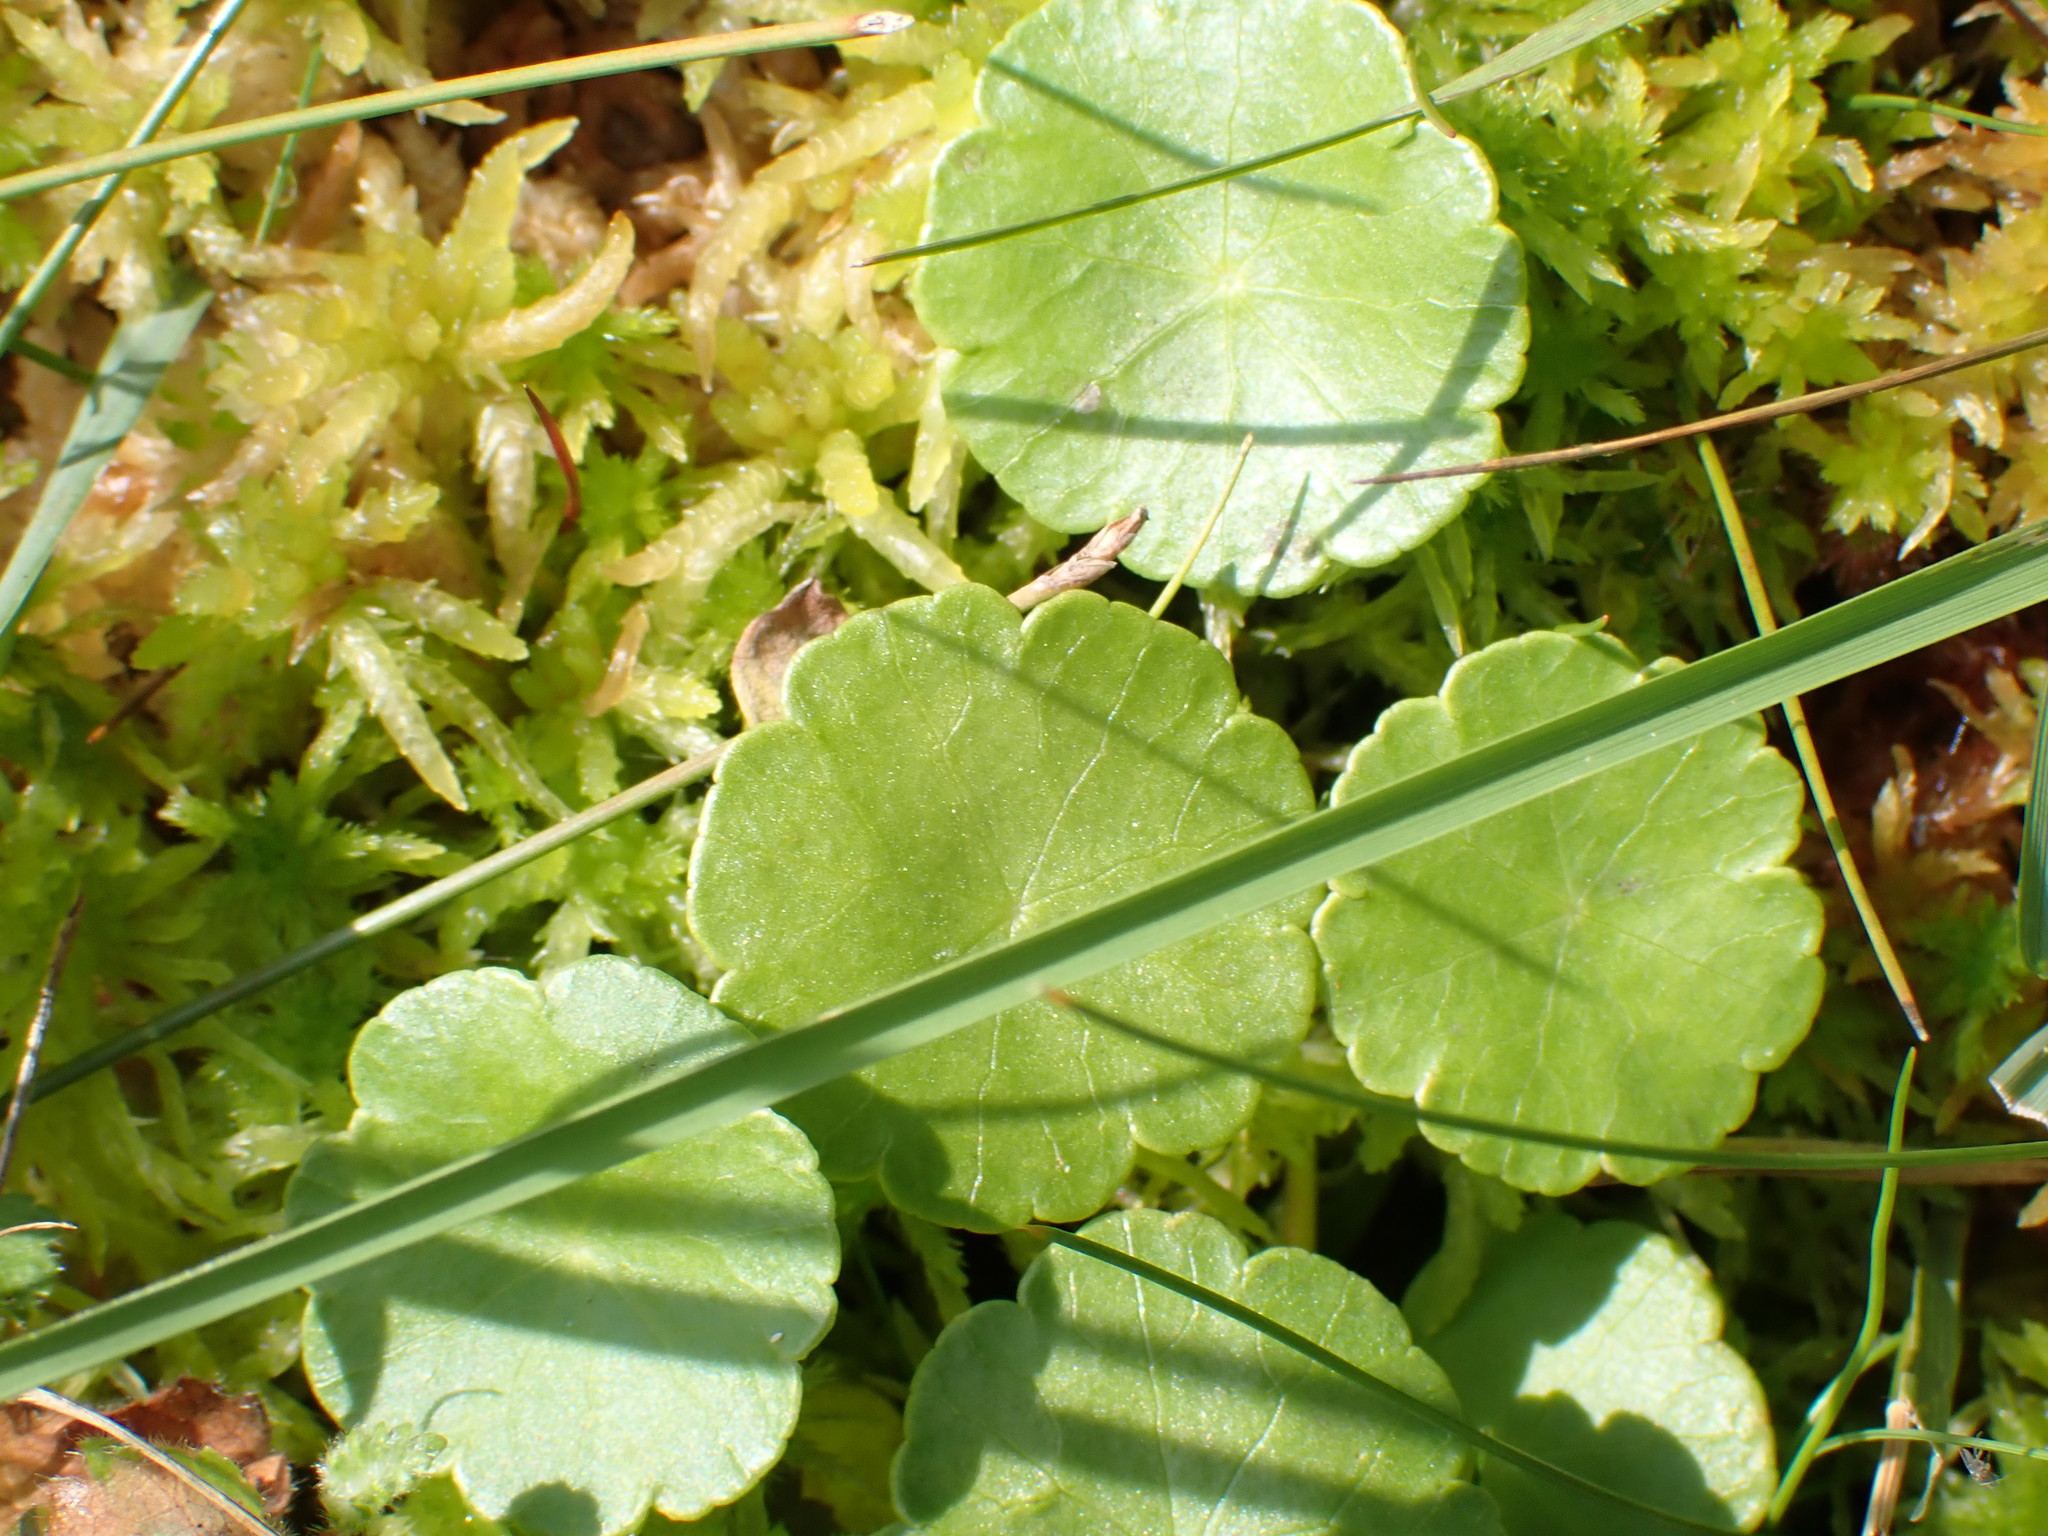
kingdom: Plantae
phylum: Tracheophyta
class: Magnoliopsida
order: Apiales
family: Araliaceae
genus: Hydrocotyle
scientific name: Hydrocotyle vulgaris
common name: Marsh pennywort
